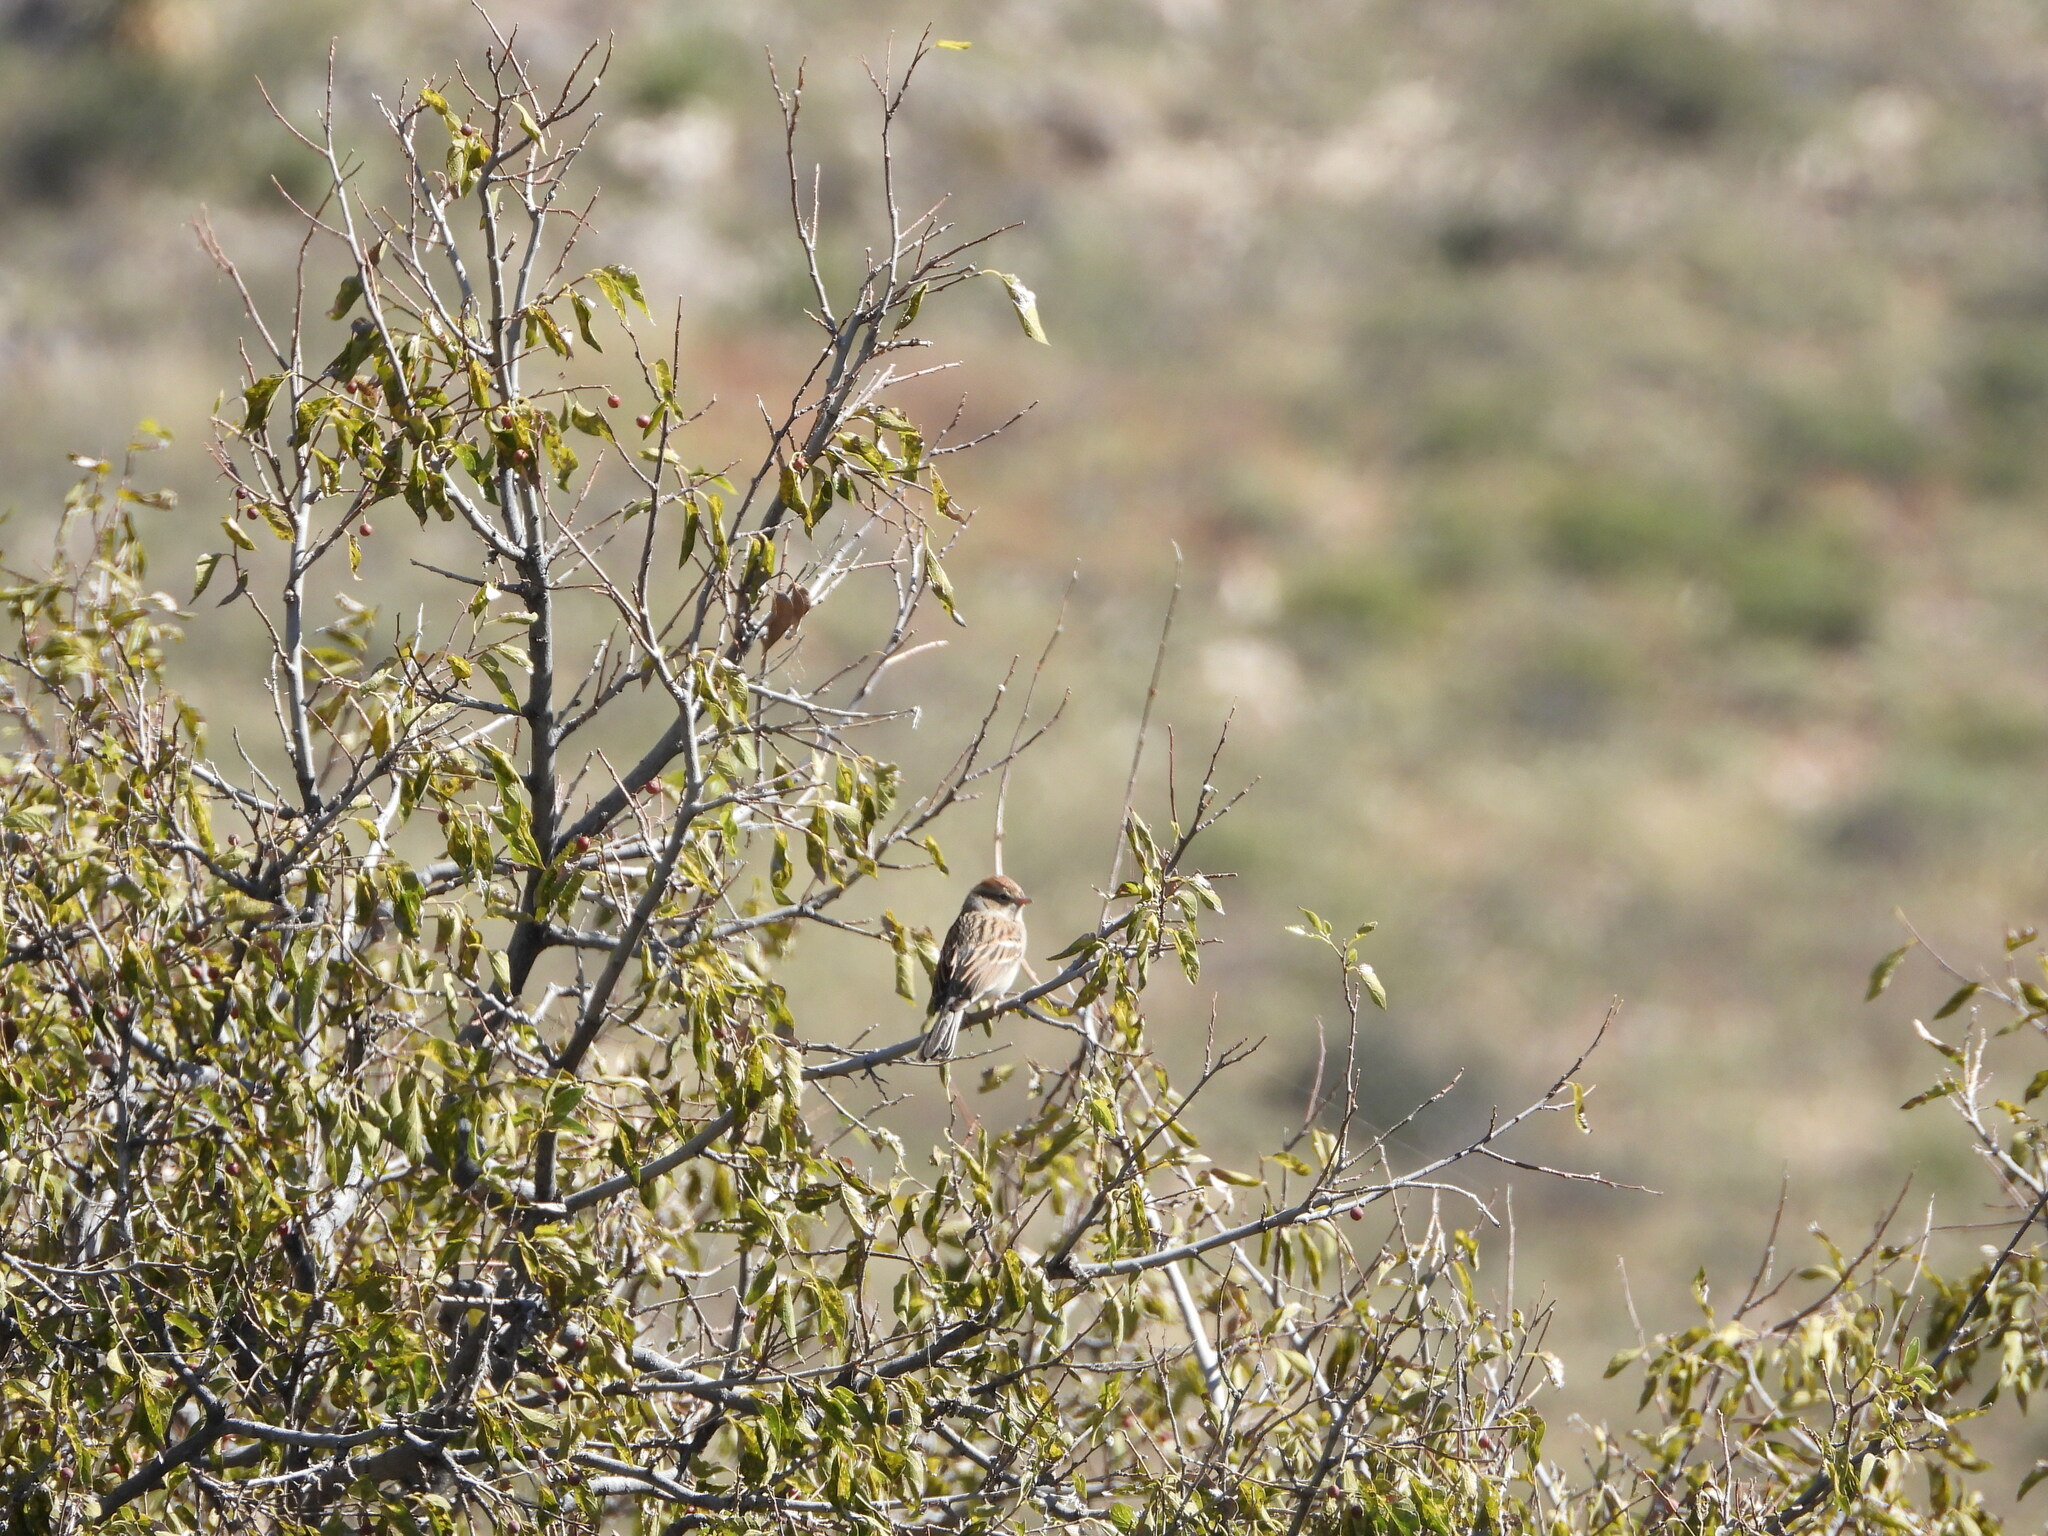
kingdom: Animalia
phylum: Chordata
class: Aves
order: Passeriformes
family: Passerellidae
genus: Spizella
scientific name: Spizella passerina
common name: Chipping sparrow
